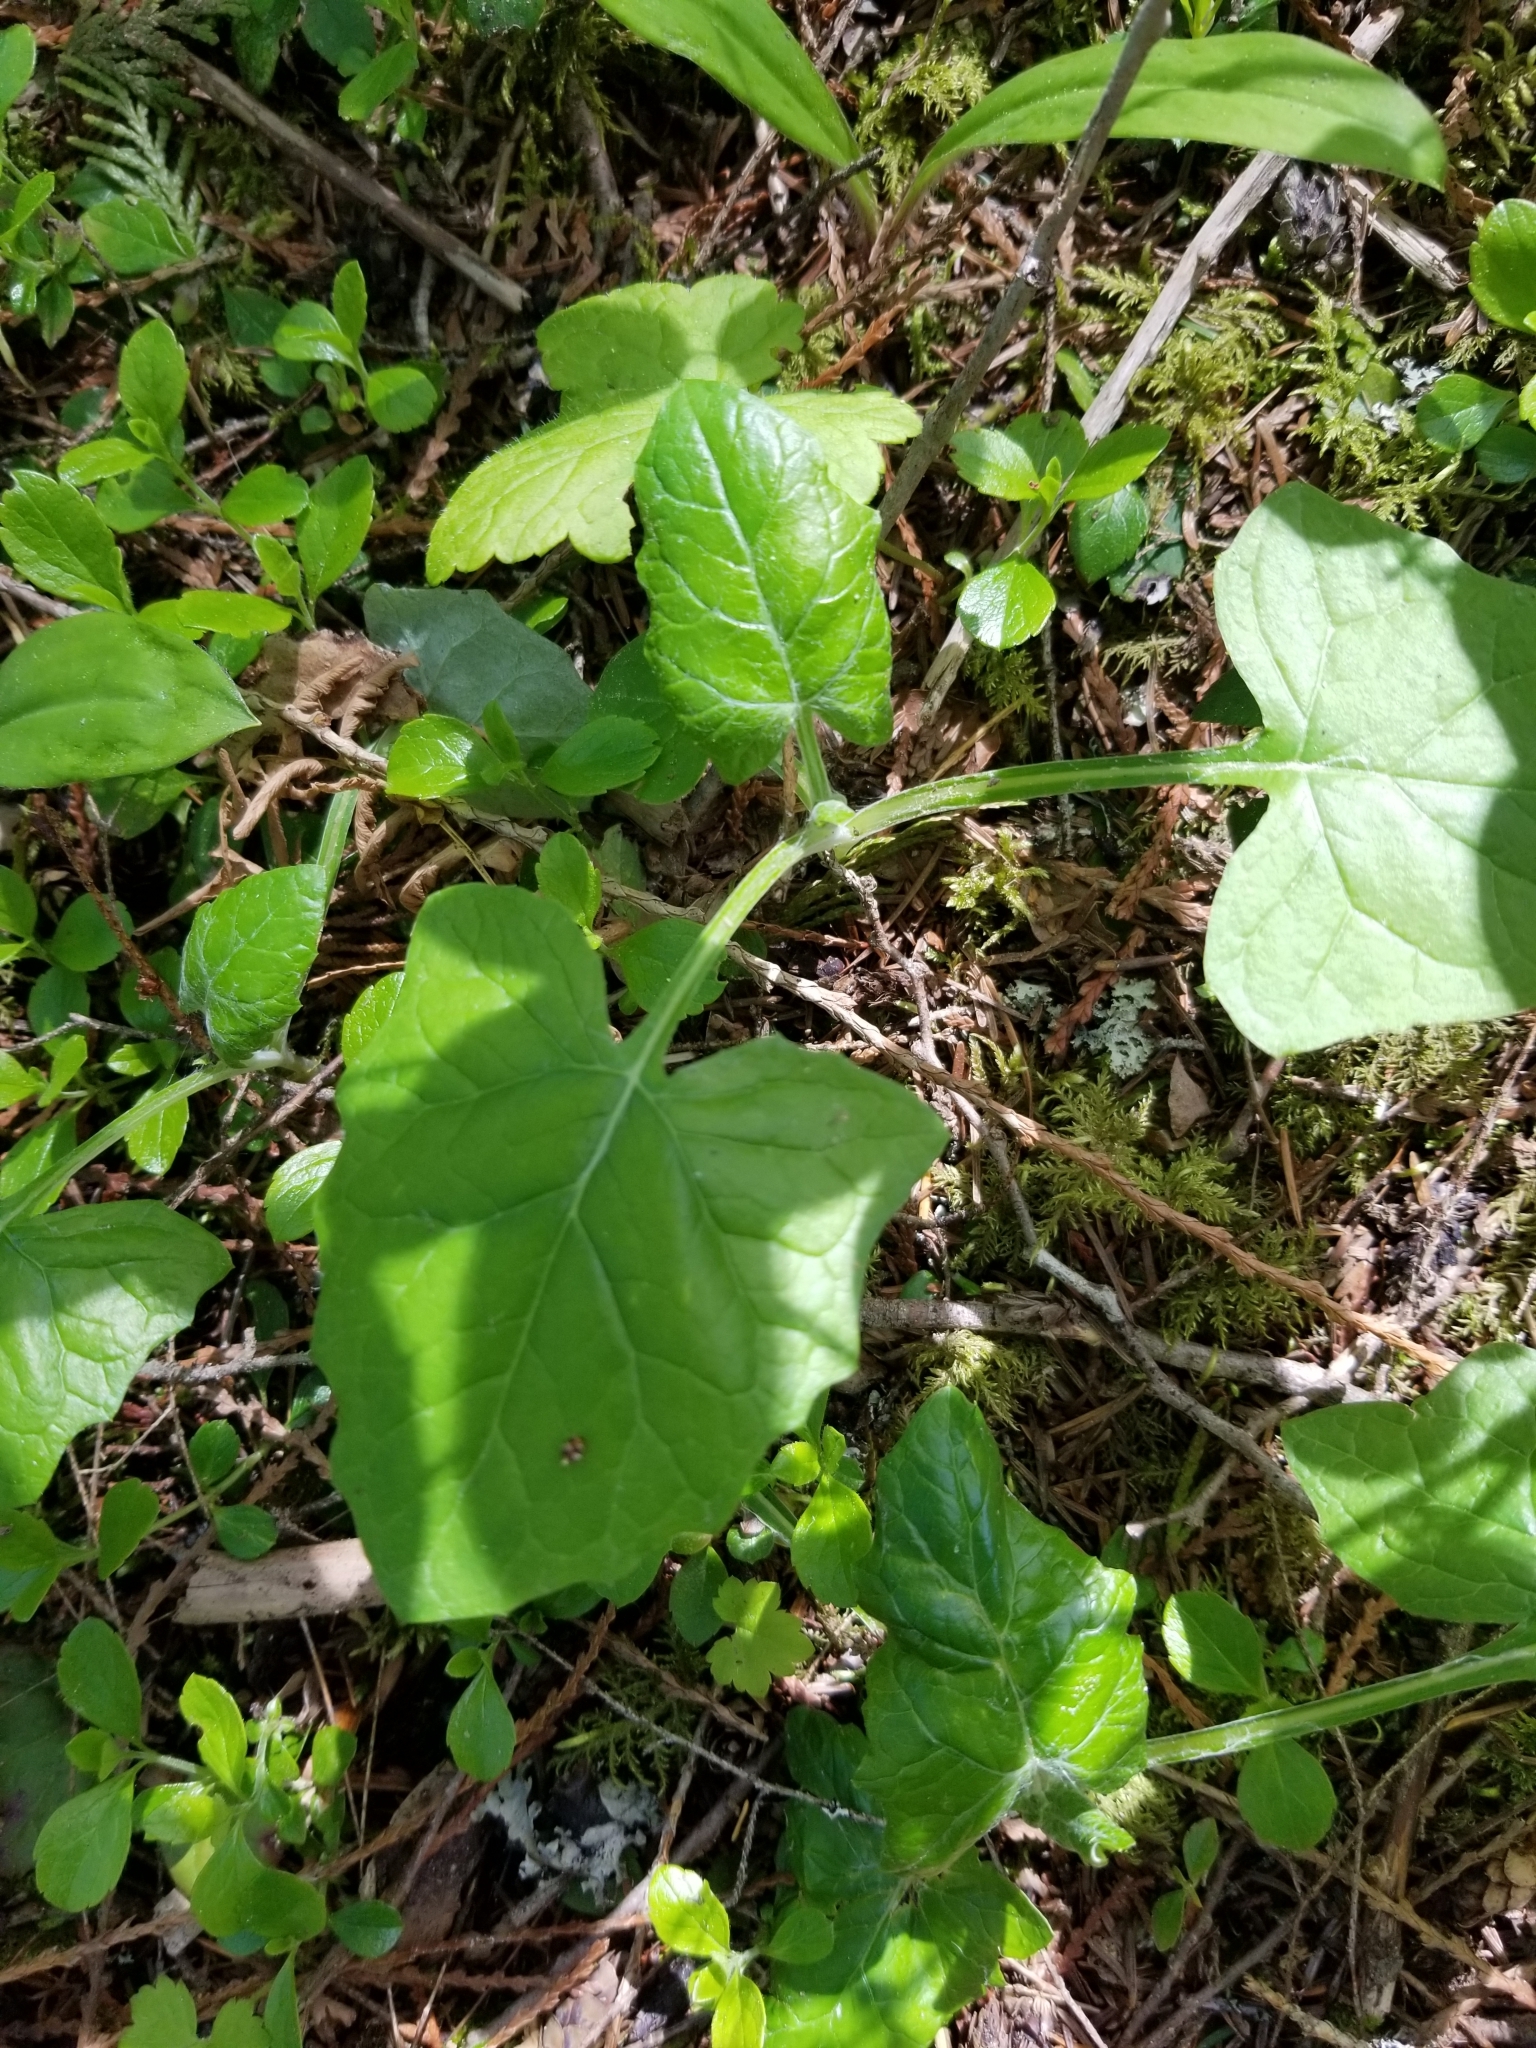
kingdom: Plantae
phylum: Tracheophyta
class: Magnoliopsida
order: Asterales
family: Asteraceae
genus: Adenocaulon
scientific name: Adenocaulon bicolor
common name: Trailplant
